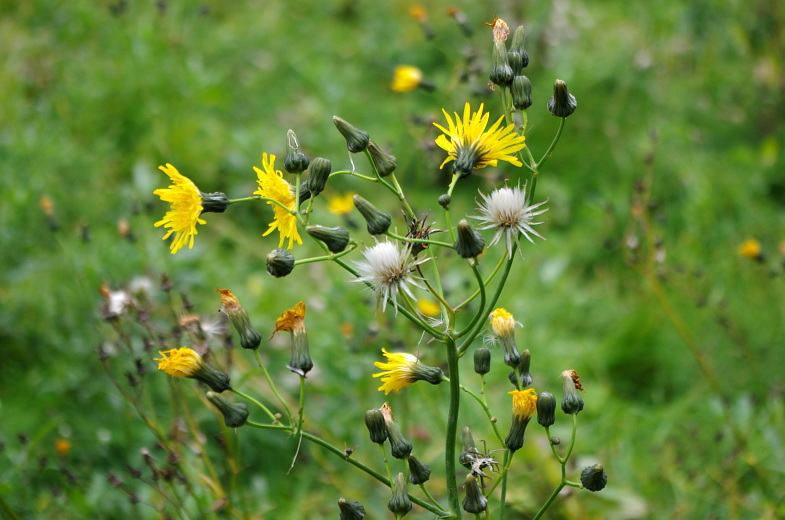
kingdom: Plantae
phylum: Tracheophyta
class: Magnoliopsida
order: Asterales
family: Asteraceae
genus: Sonchus
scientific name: Sonchus arvensis
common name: Perennial sow-thistle
